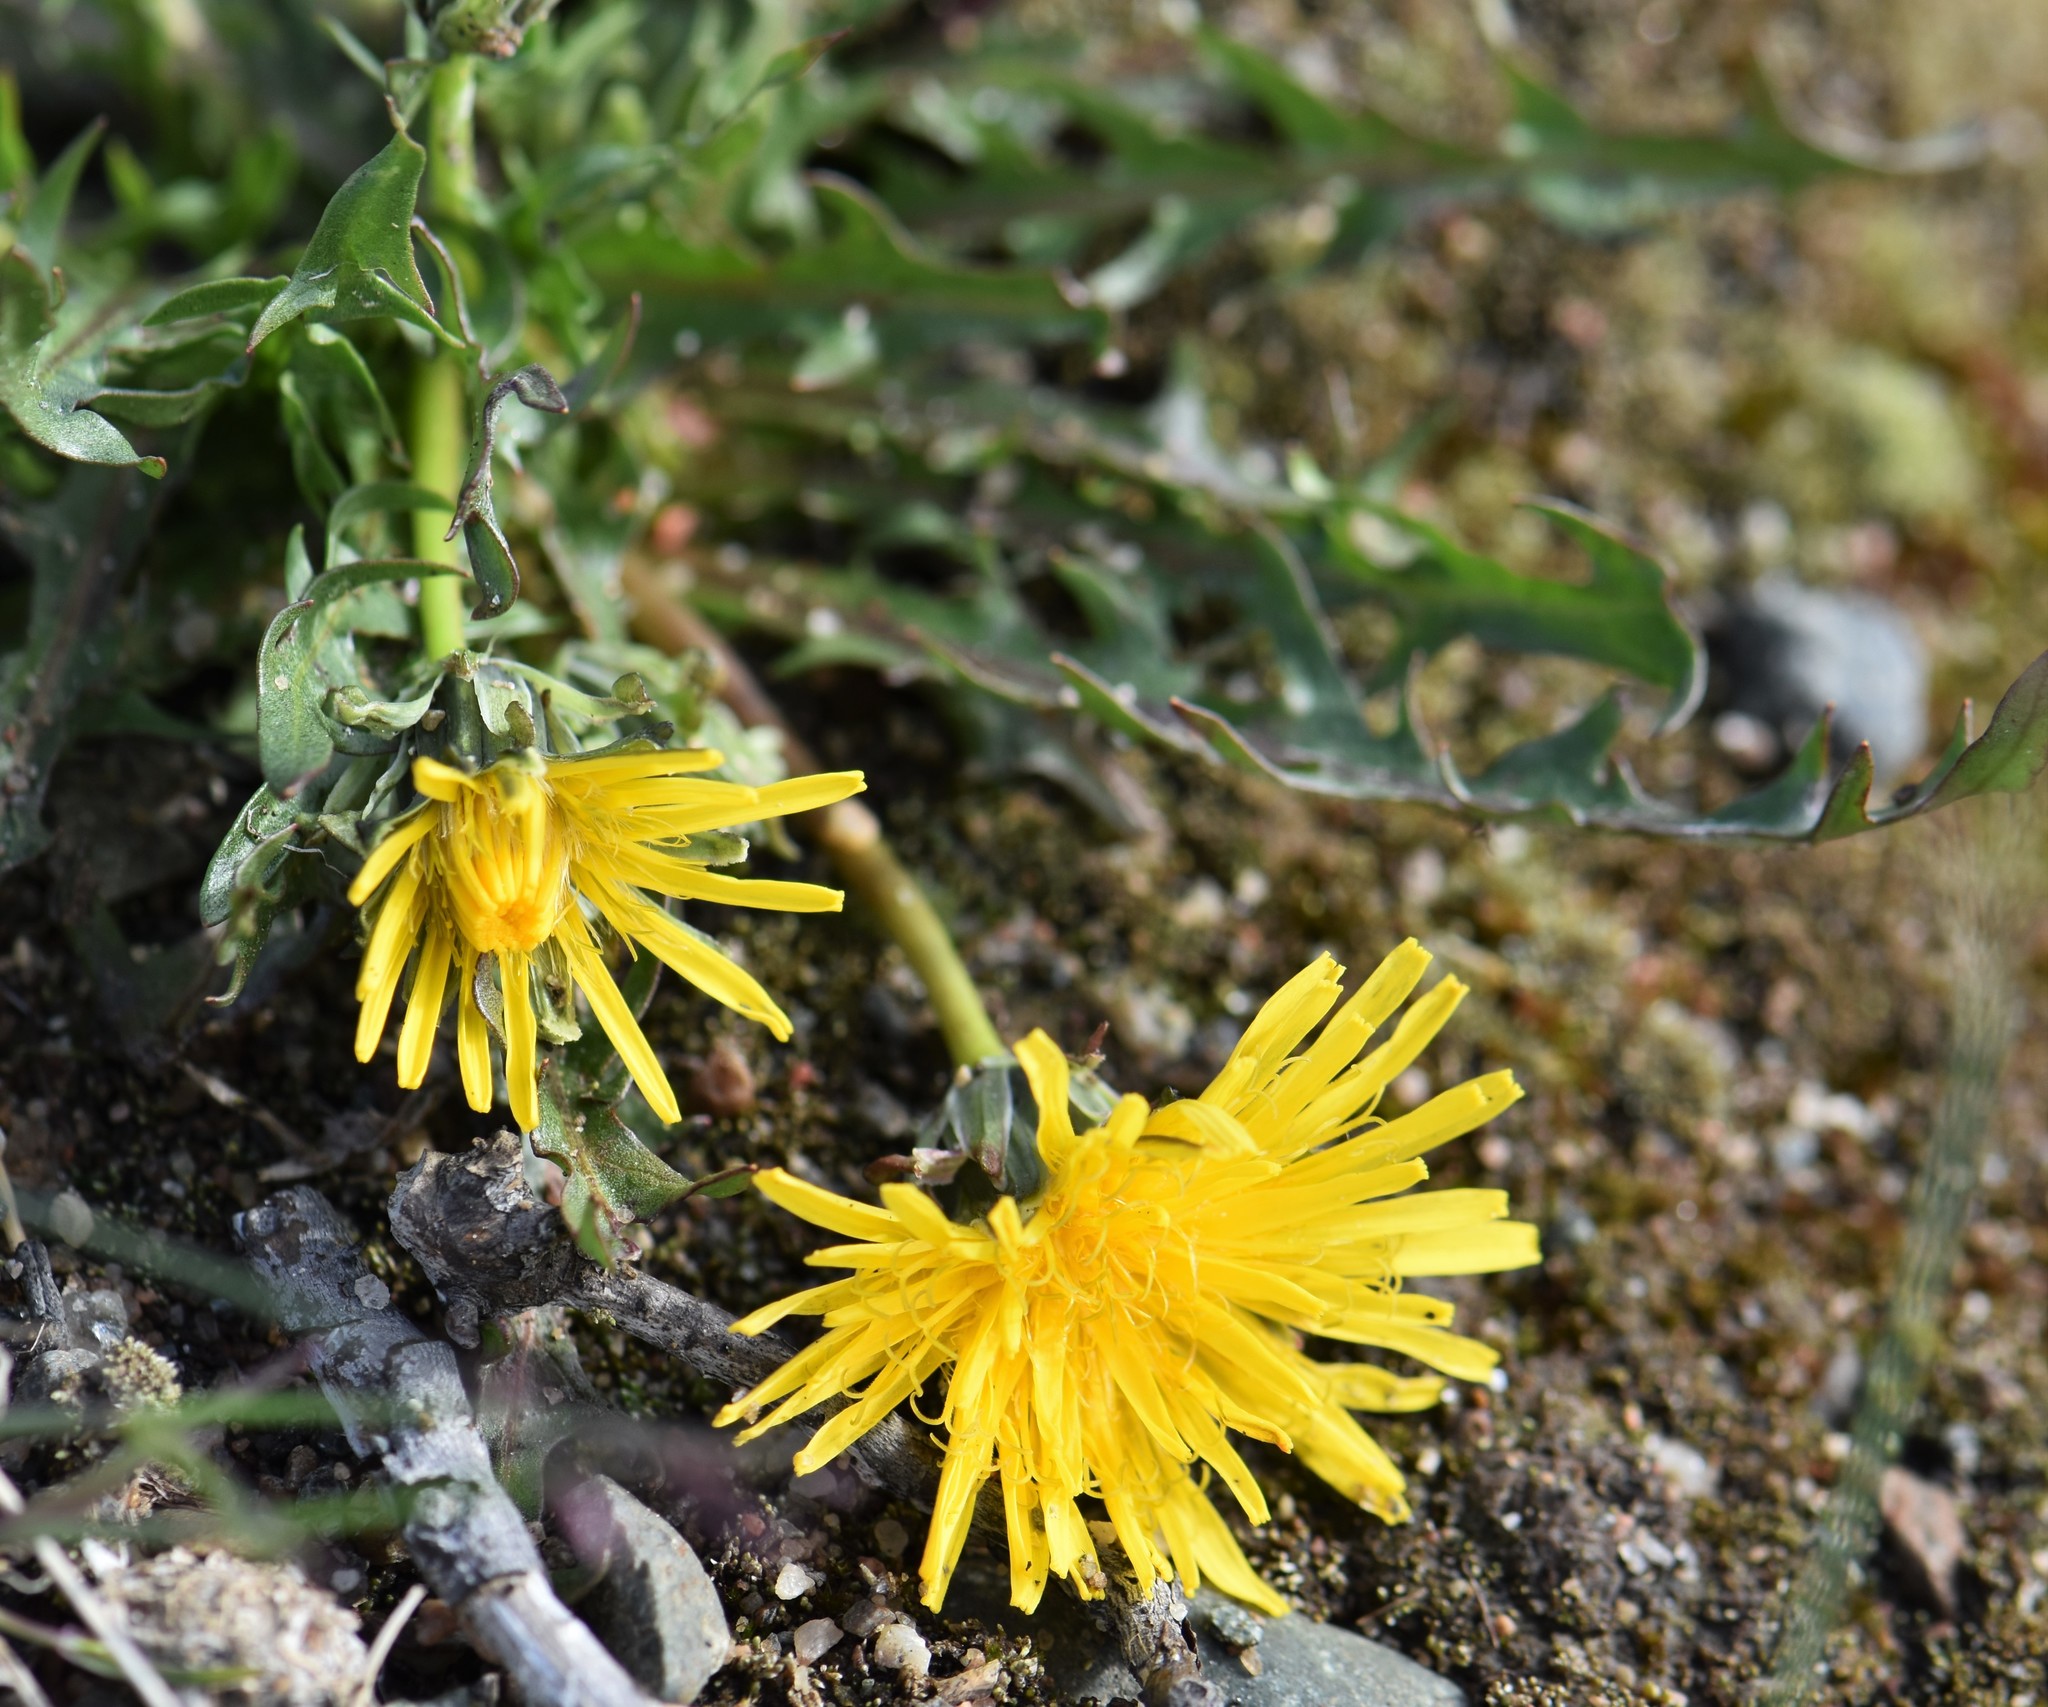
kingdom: Plantae
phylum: Tracheophyta
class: Magnoliopsida
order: Asterales
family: Asteraceae
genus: Taraxacum
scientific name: Taraxacum ceratophorum
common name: Horn-bearing dandelion
